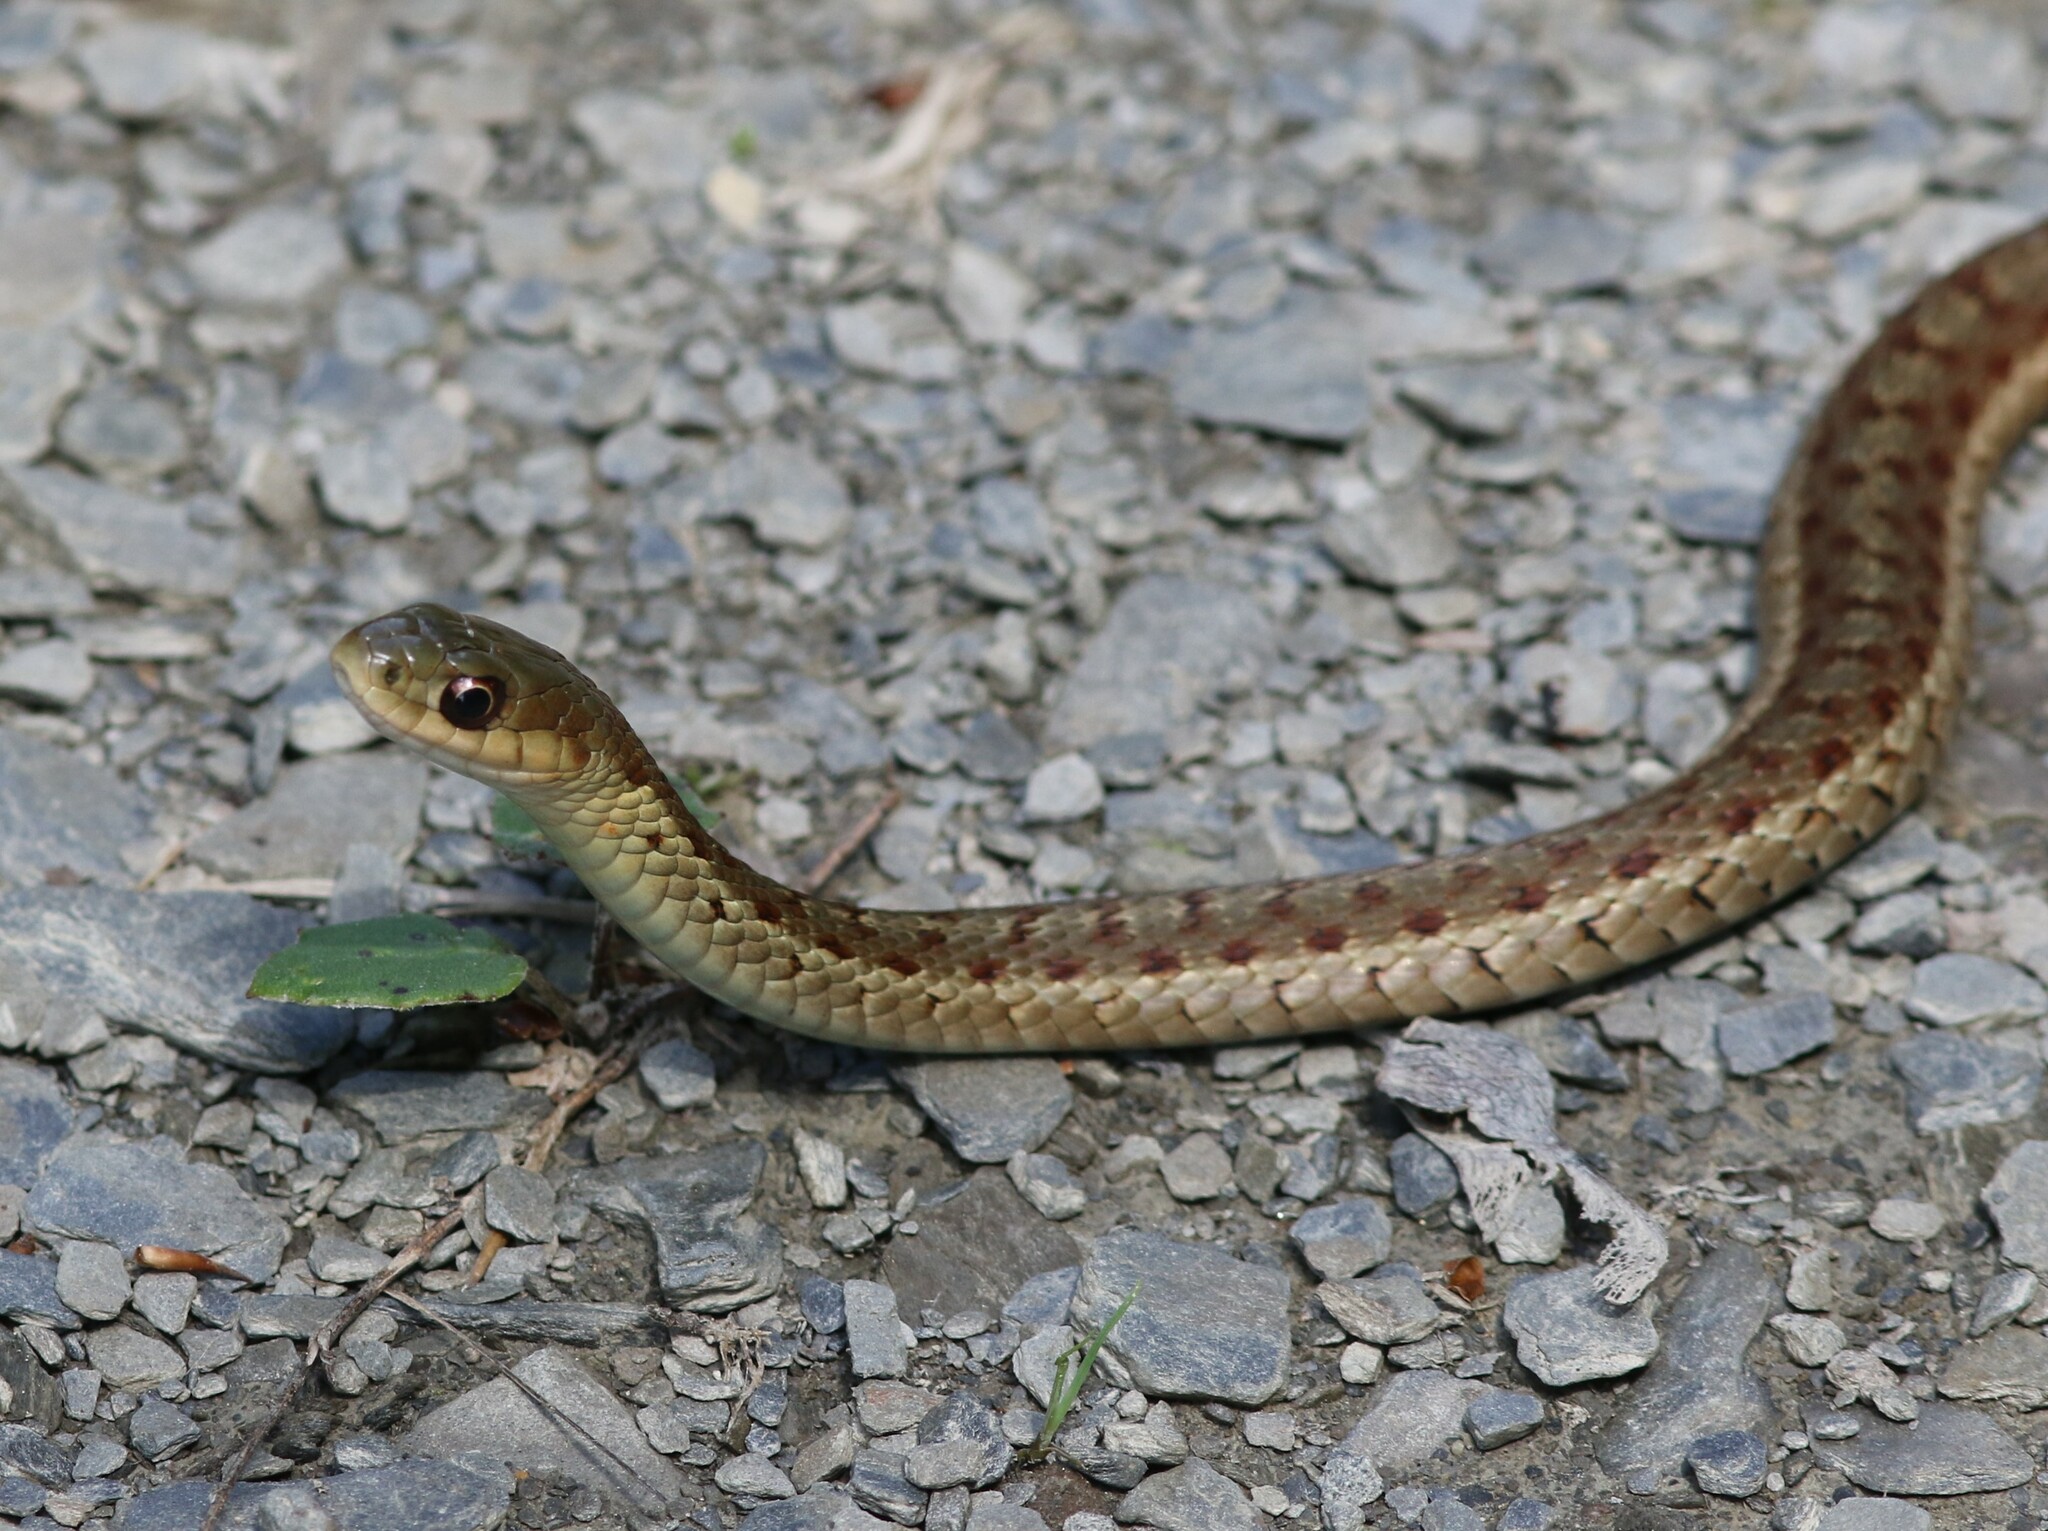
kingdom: Animalia
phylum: Chordata
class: Squamata
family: Colubridae
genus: Thamnophis
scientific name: Thamnophis sirtalis
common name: Common garter snake
